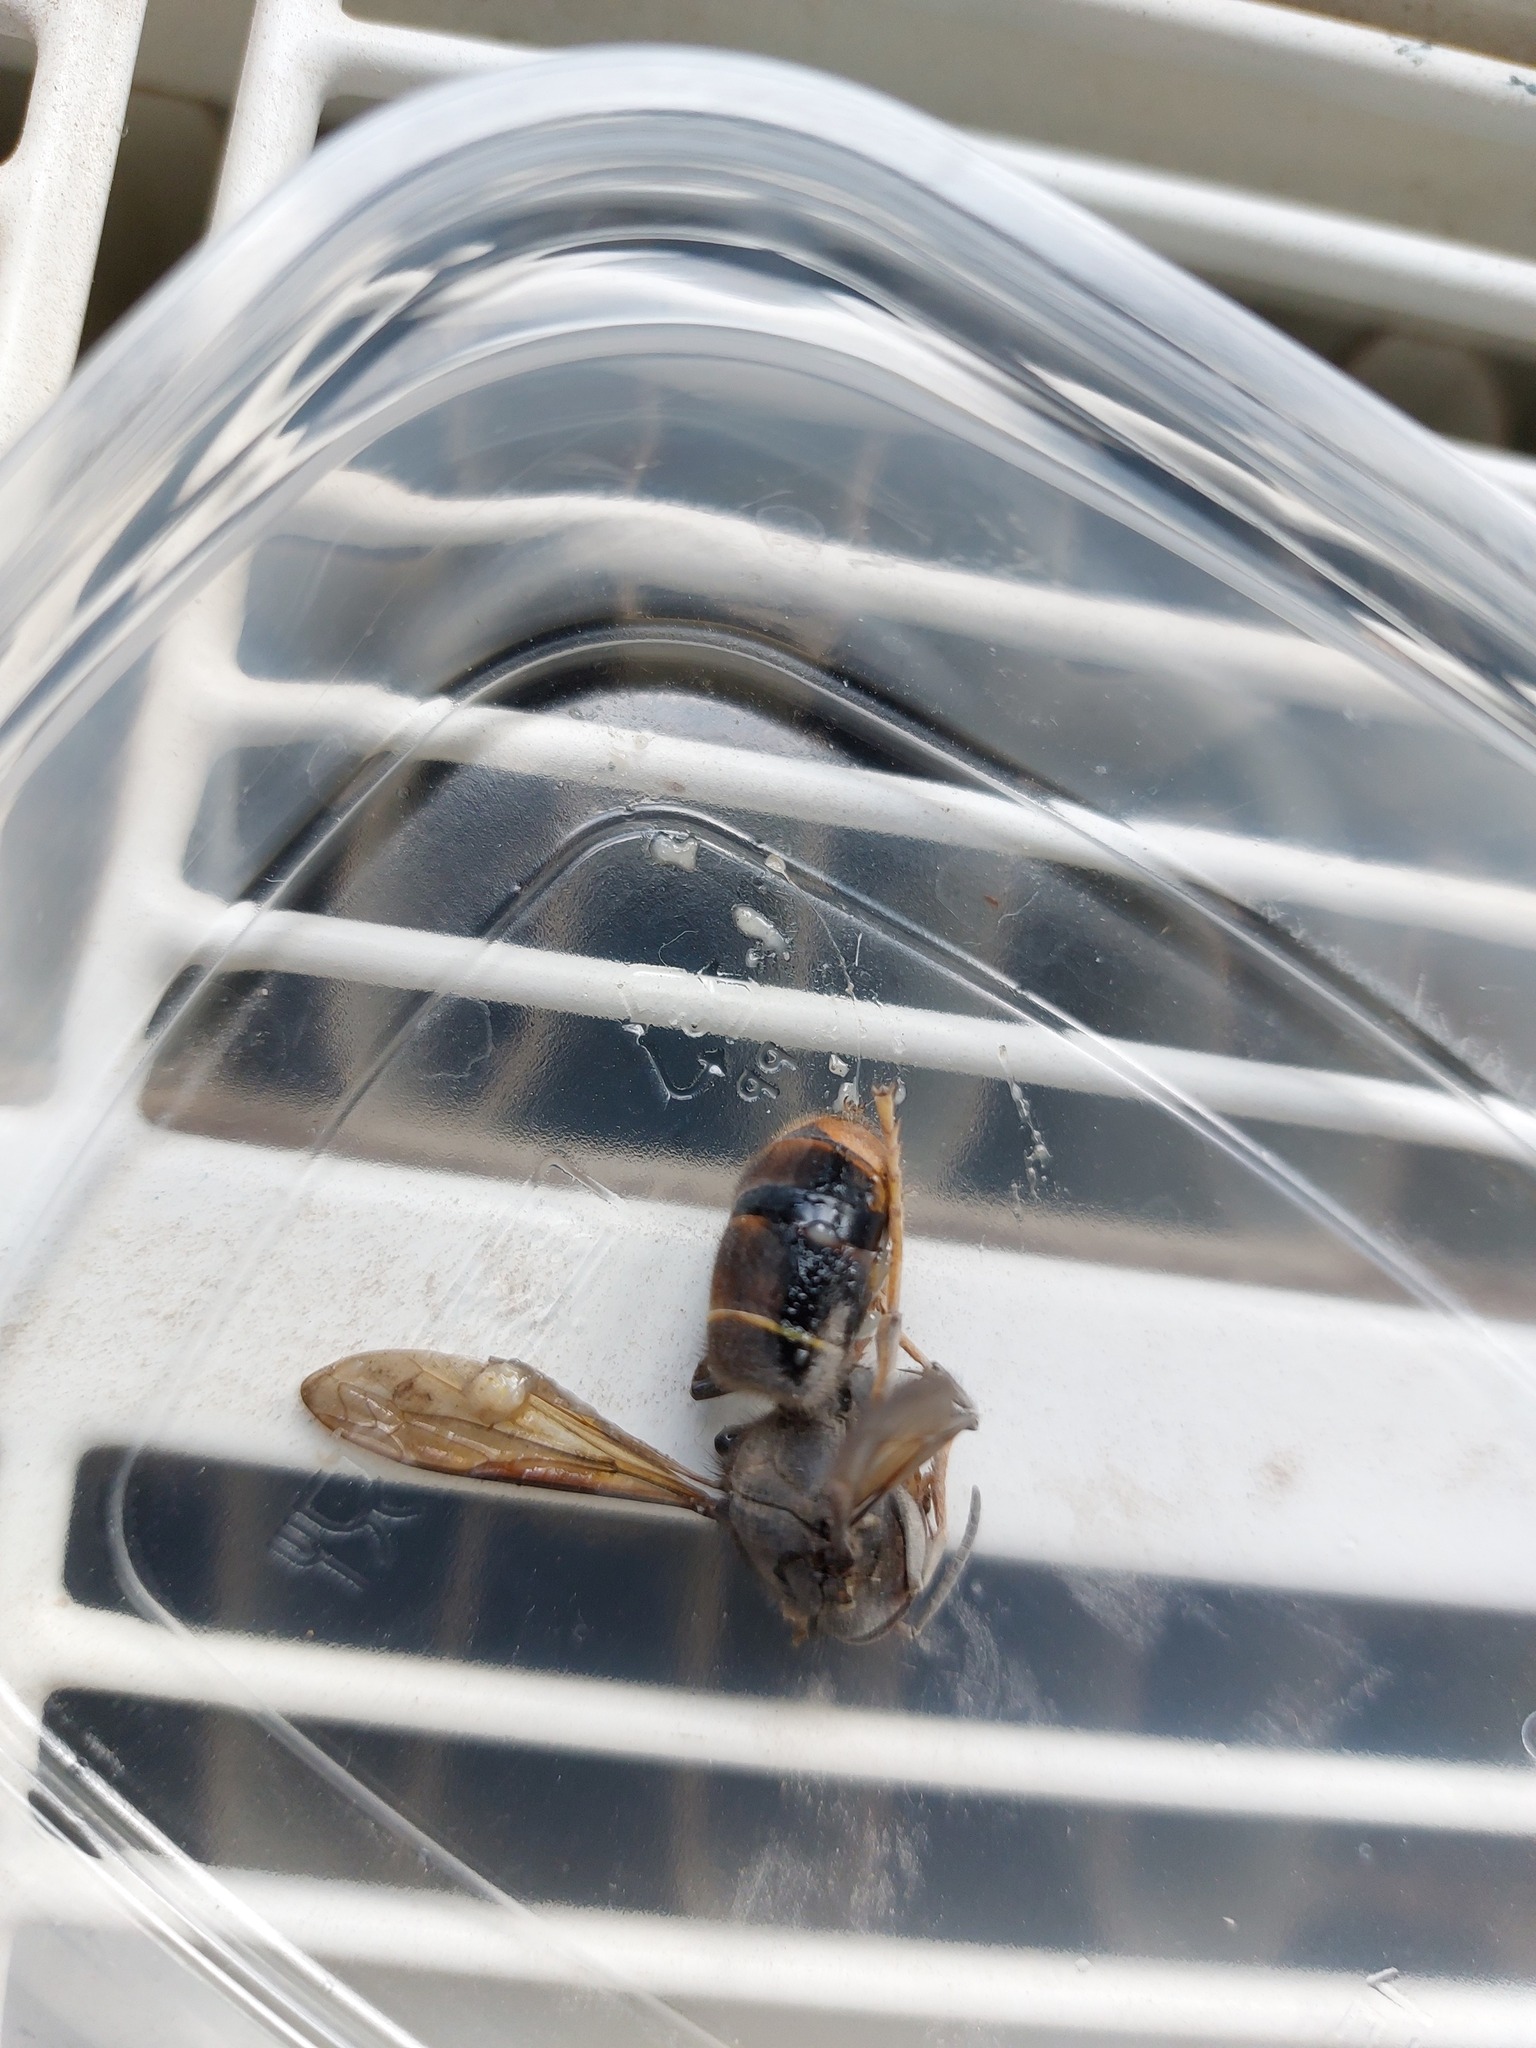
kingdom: Animalia
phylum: Arthropoda
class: Insecta
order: Hymenoptera
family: Vespidae
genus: Vespa
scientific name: Vespa velutina
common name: Asian hornet
